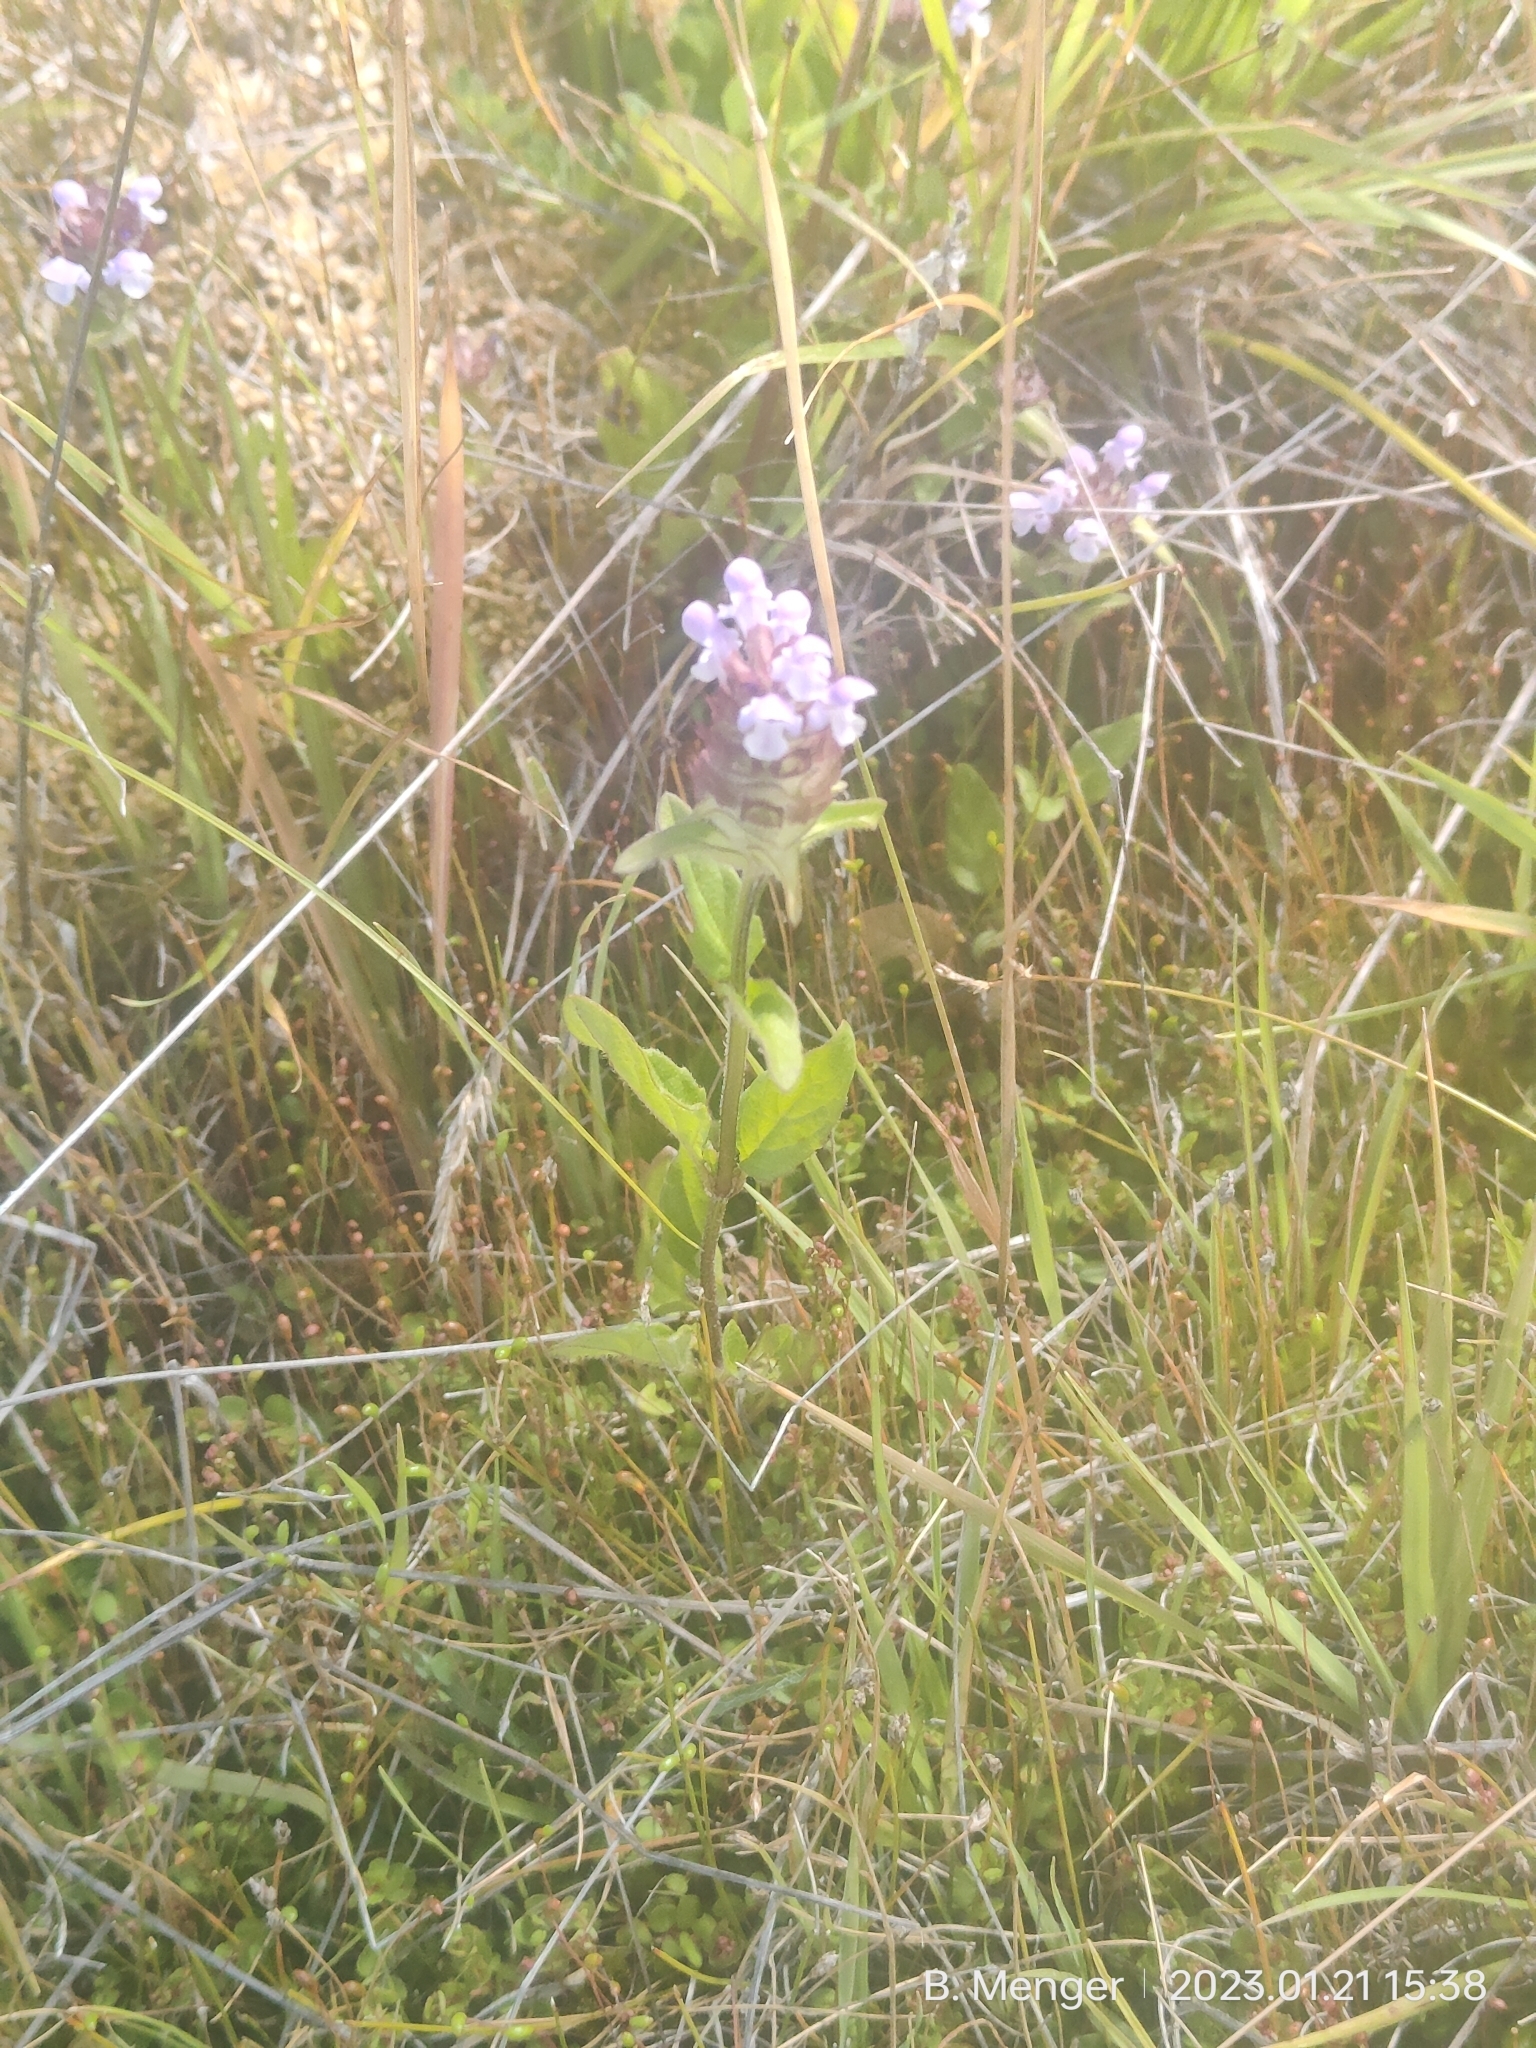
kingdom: Plantae
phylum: Tracheophyta
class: Magnoliopsida
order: Lamiales
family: Lamiaceae
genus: Prunella
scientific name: Prunella vulgaris
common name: Heal-all
